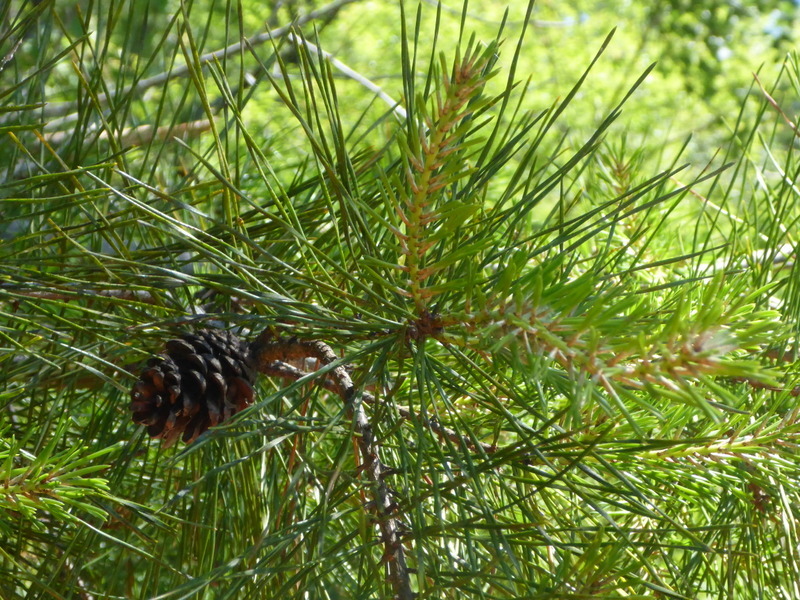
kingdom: Plantae
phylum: Tracheophyta
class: Pinopsida
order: Pinales
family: Pinaceae
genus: Pinus
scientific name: Pinus glabra
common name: Spruce pine
